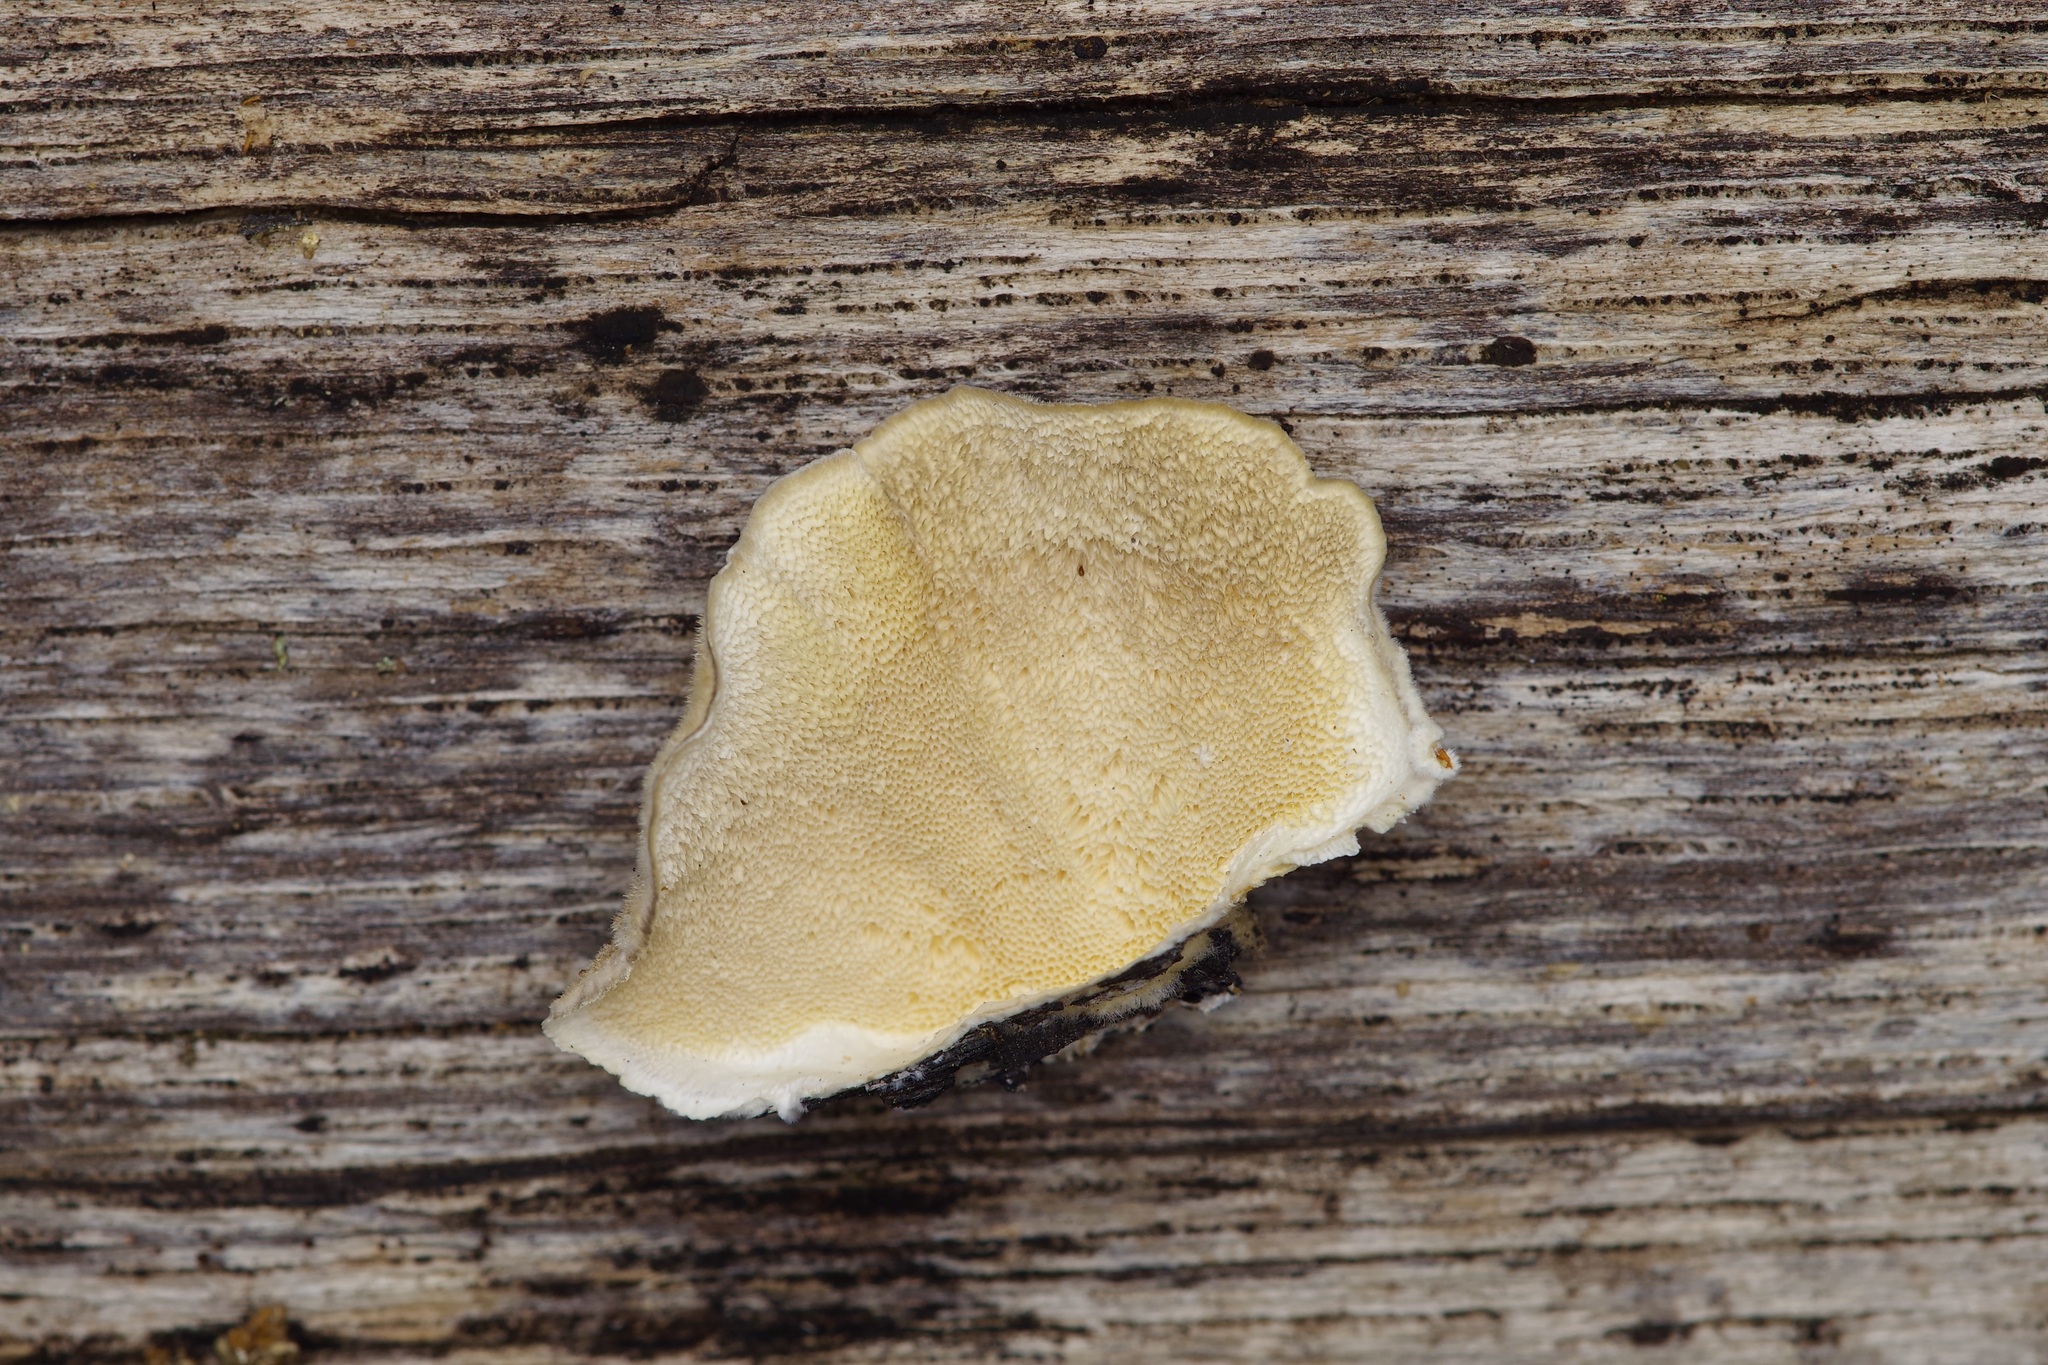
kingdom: Fungi
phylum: Basidiomycota
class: Agaricomycetes
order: Polyporales
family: Polyporaceae
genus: Trametes
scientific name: Trametes versicolor
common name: Turkeytail
